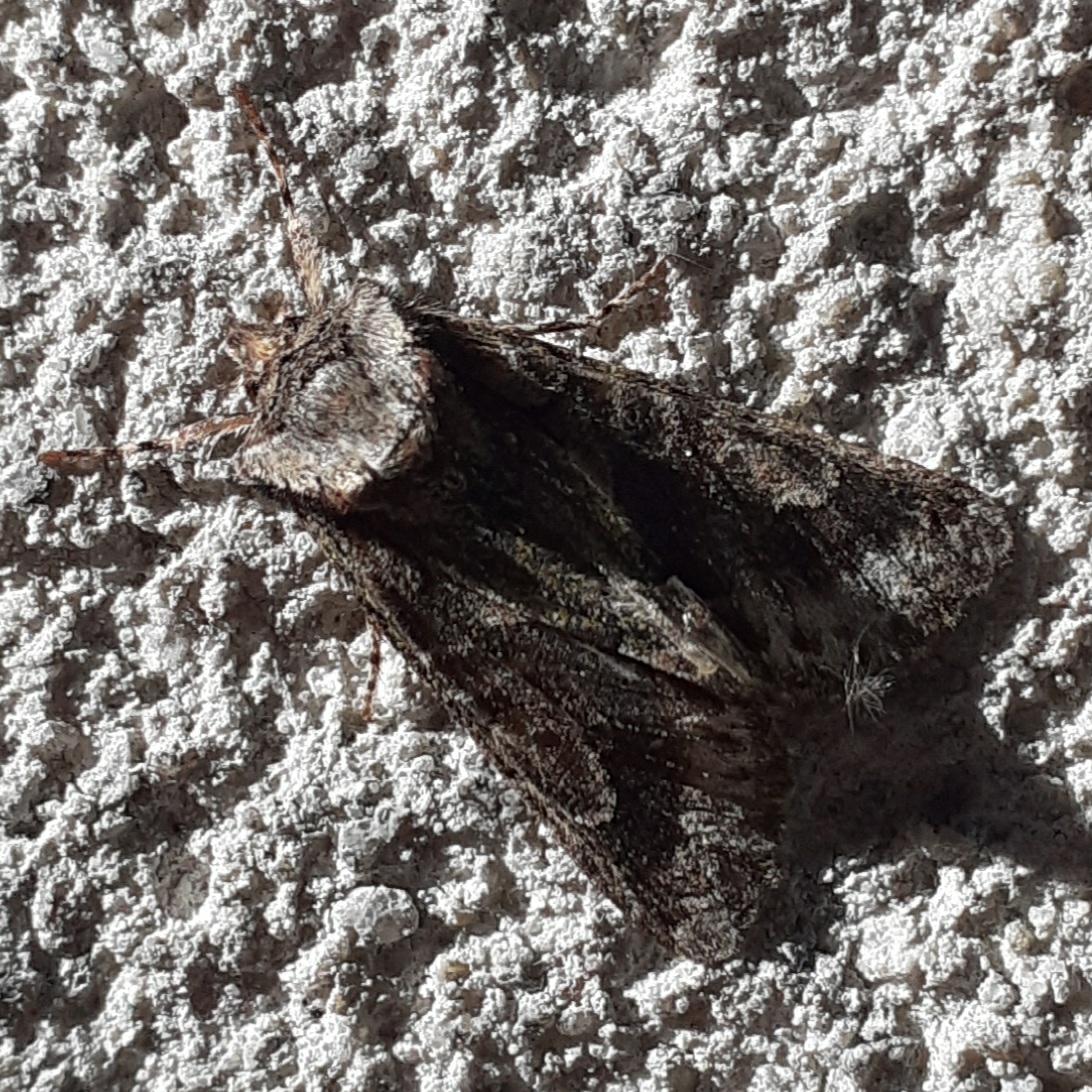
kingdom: Animalia
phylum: Arthropoda
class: Insecta
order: Lepidoptera
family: Noctuidae
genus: Allophyes
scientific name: Allophyes oxyacanthae
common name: Green-brindled crescent
